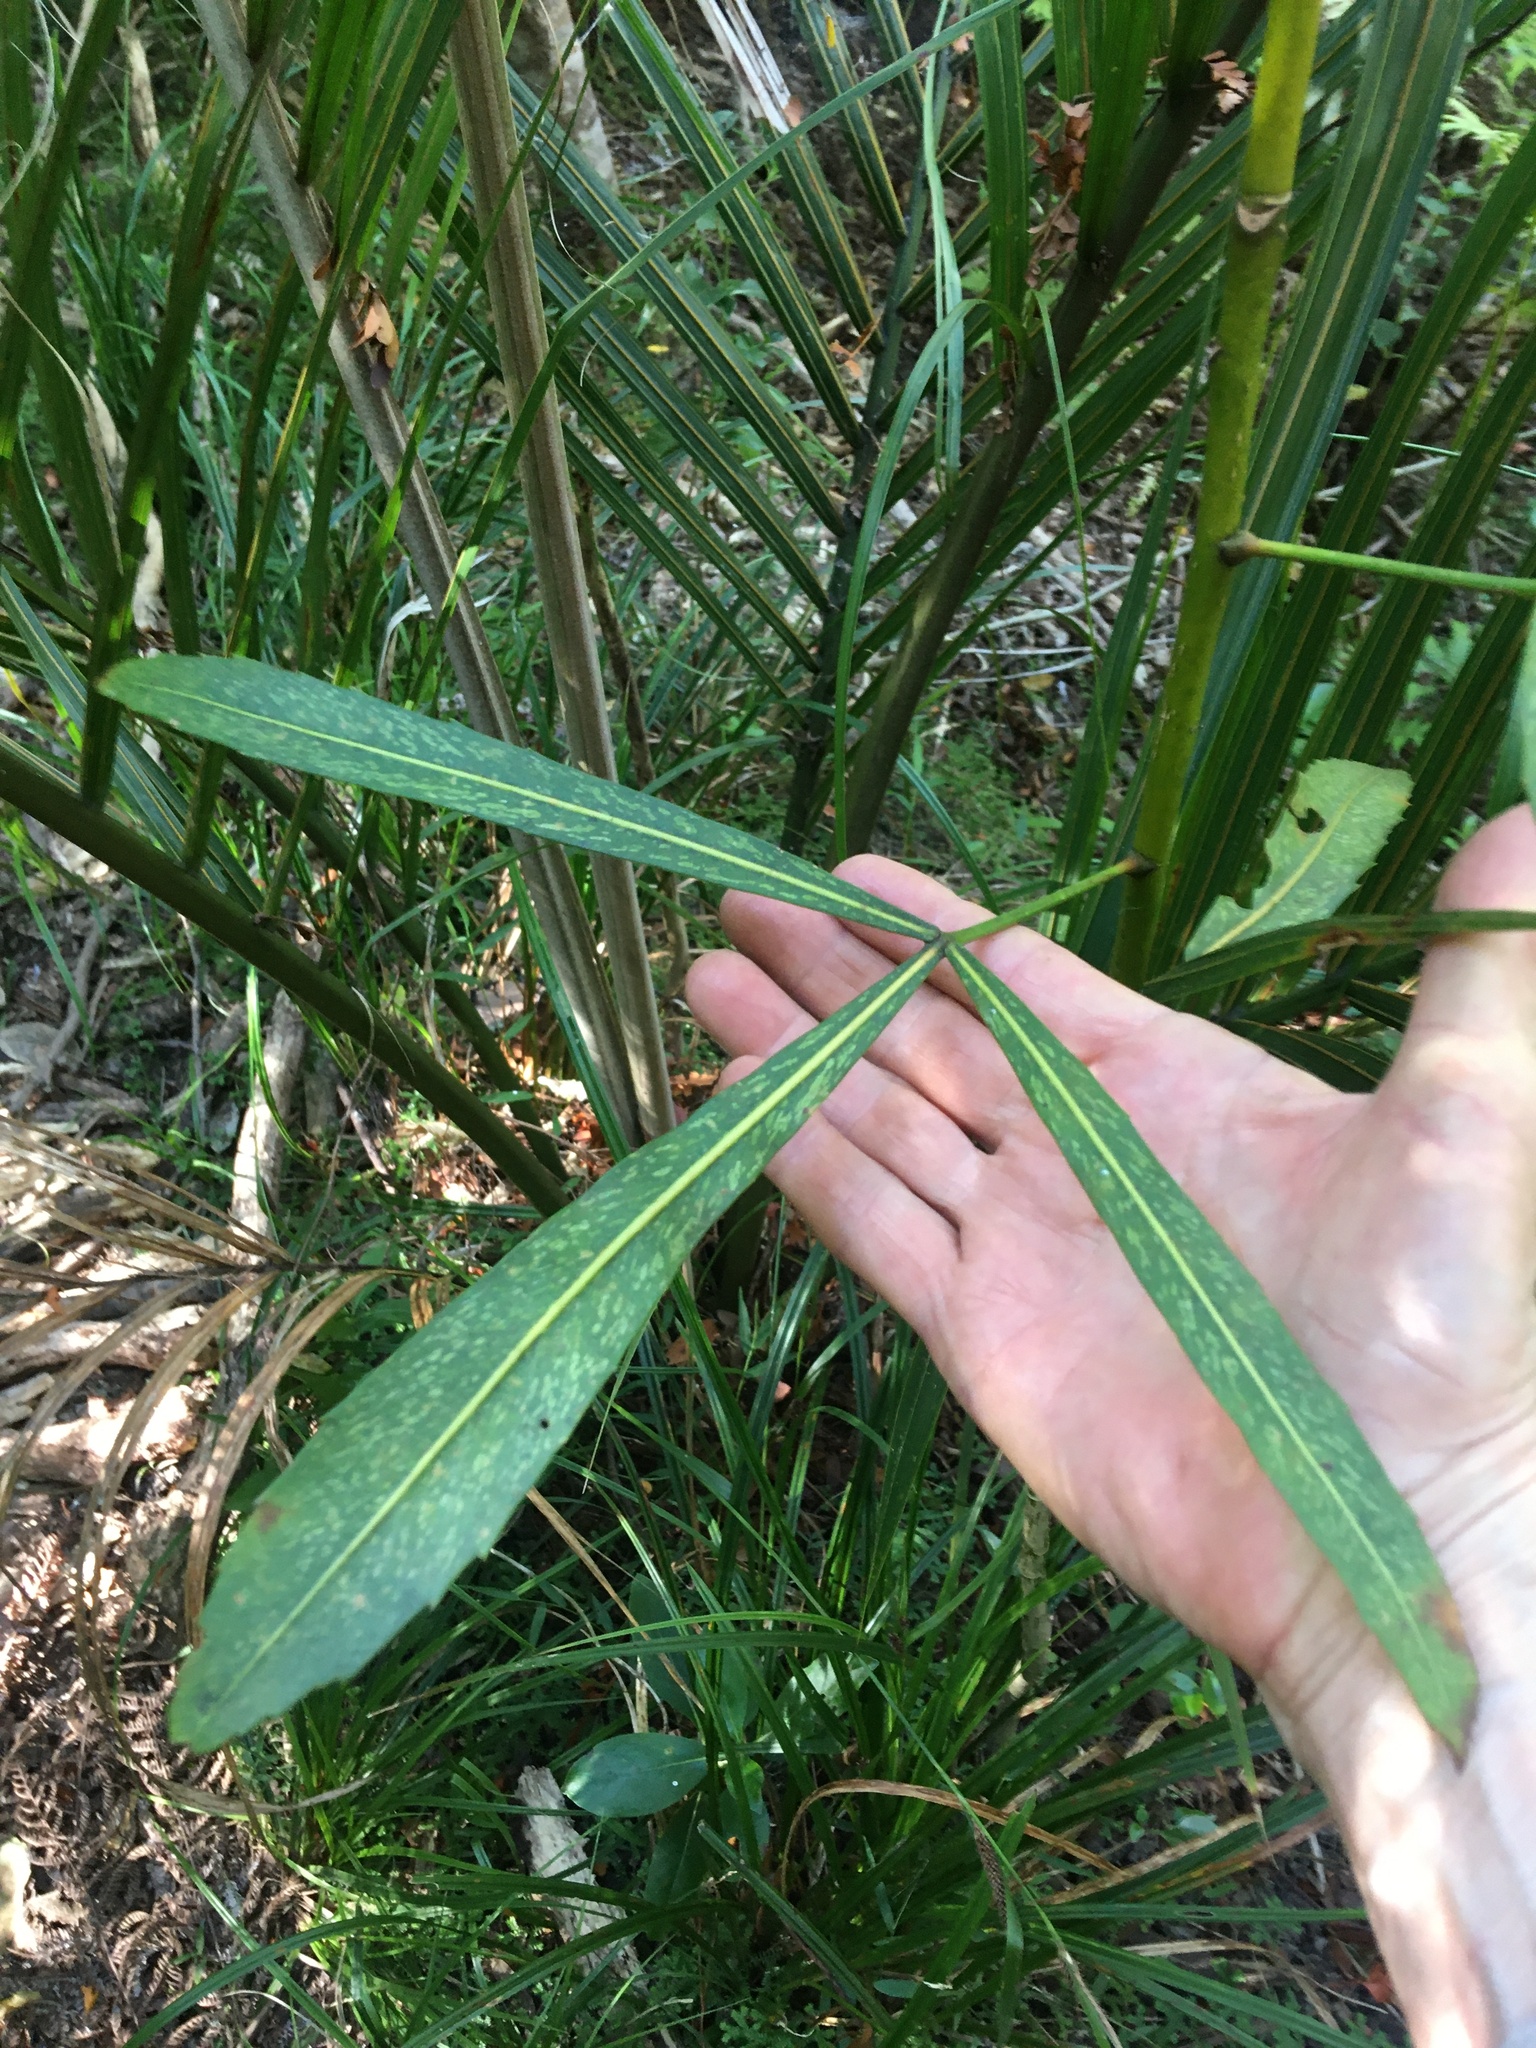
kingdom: Plantae
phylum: Tracheophyta
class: Magnoliopsida
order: Apiales
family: Araliaceae
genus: Pseudopanax
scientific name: Pseudopanax
